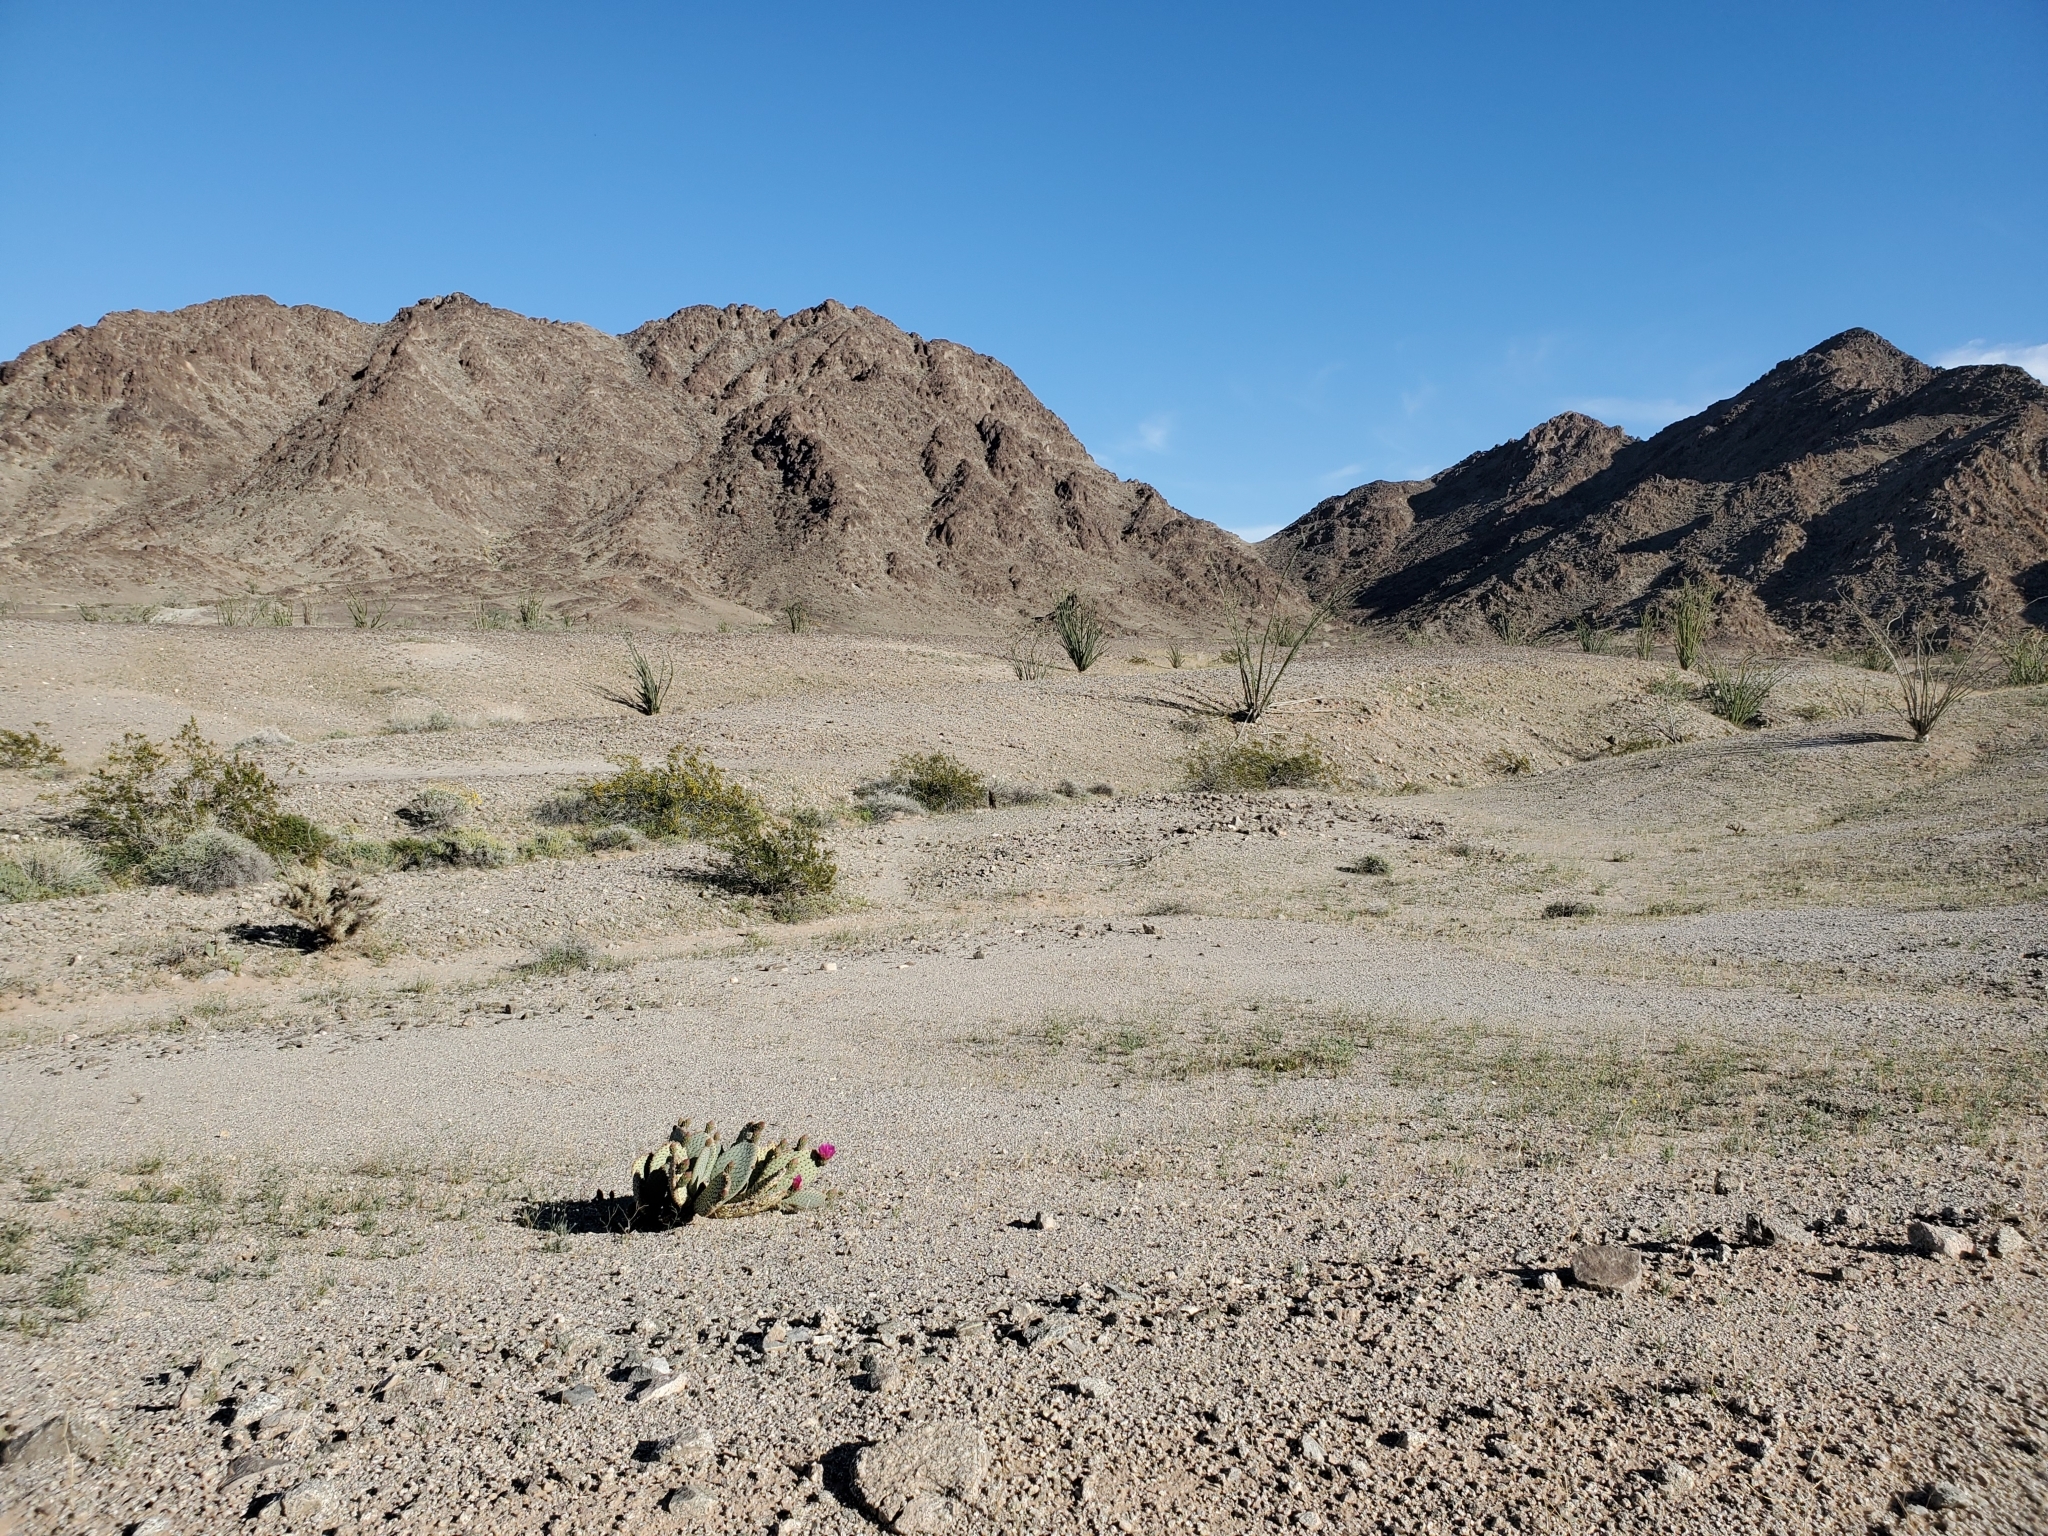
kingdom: Plantae
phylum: Tracheophyta
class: Magnoliopsida
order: Caryophyllales
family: Cactaceae
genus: Opuntia
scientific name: Opuntia basilaris
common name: Beavertail prickly-pear
